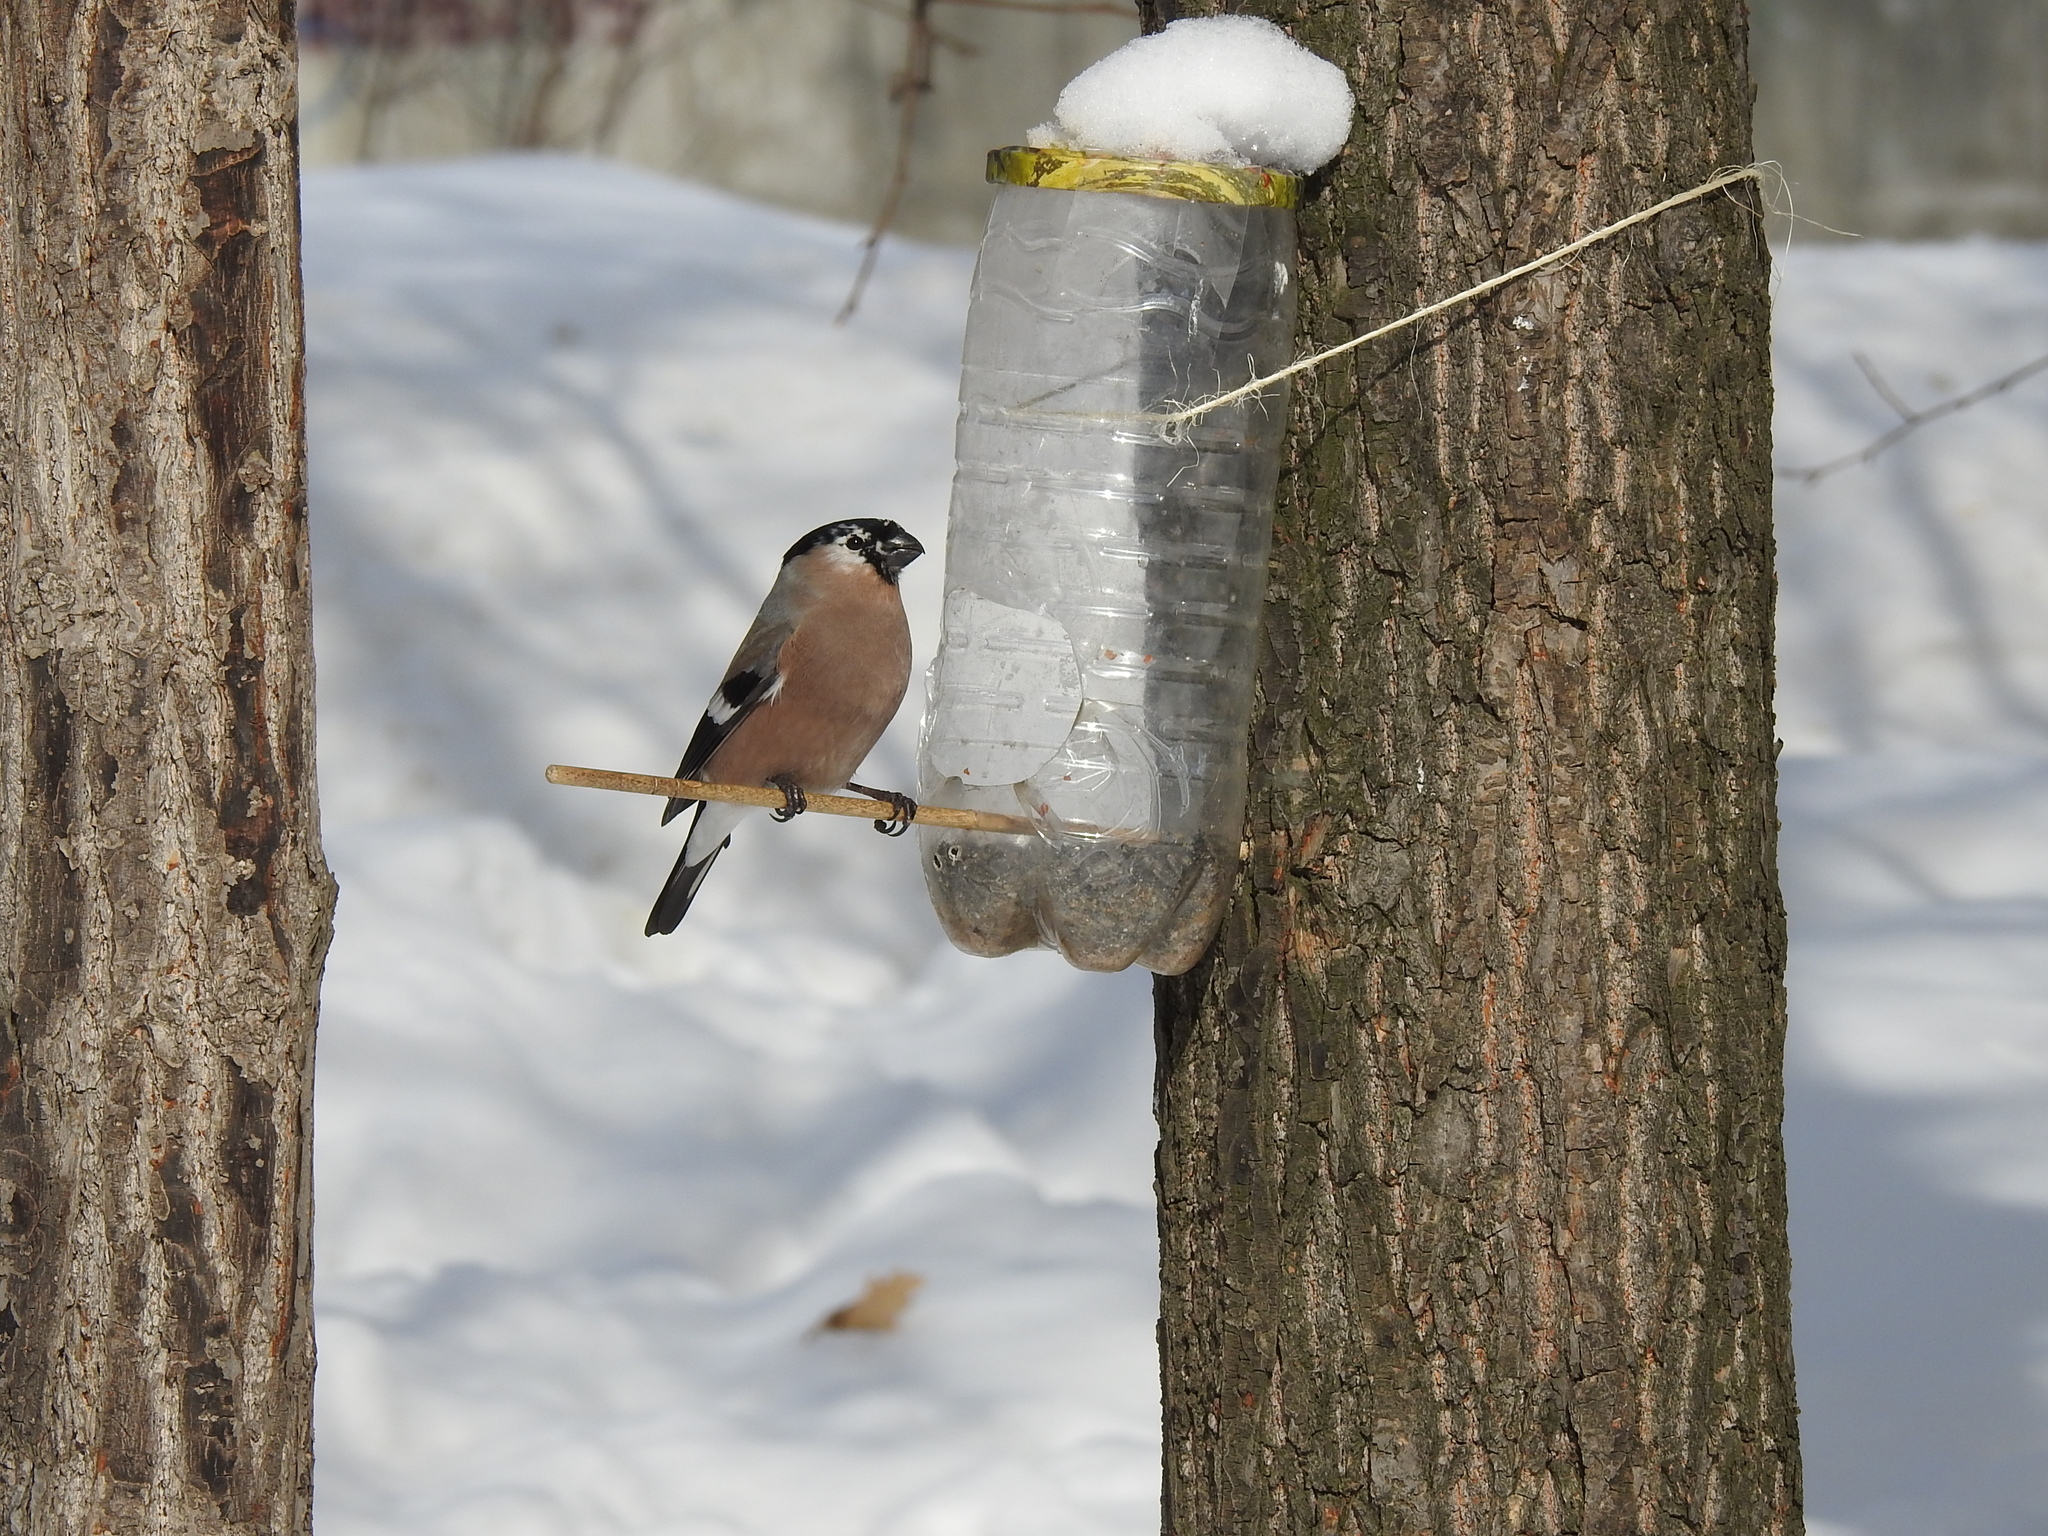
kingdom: Animalia
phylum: Chordata
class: Aves
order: Passeriformes
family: Fringillidae
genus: Pyrrhula
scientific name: Pyrrhula pyrrhula
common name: Eurasian bullfinch
